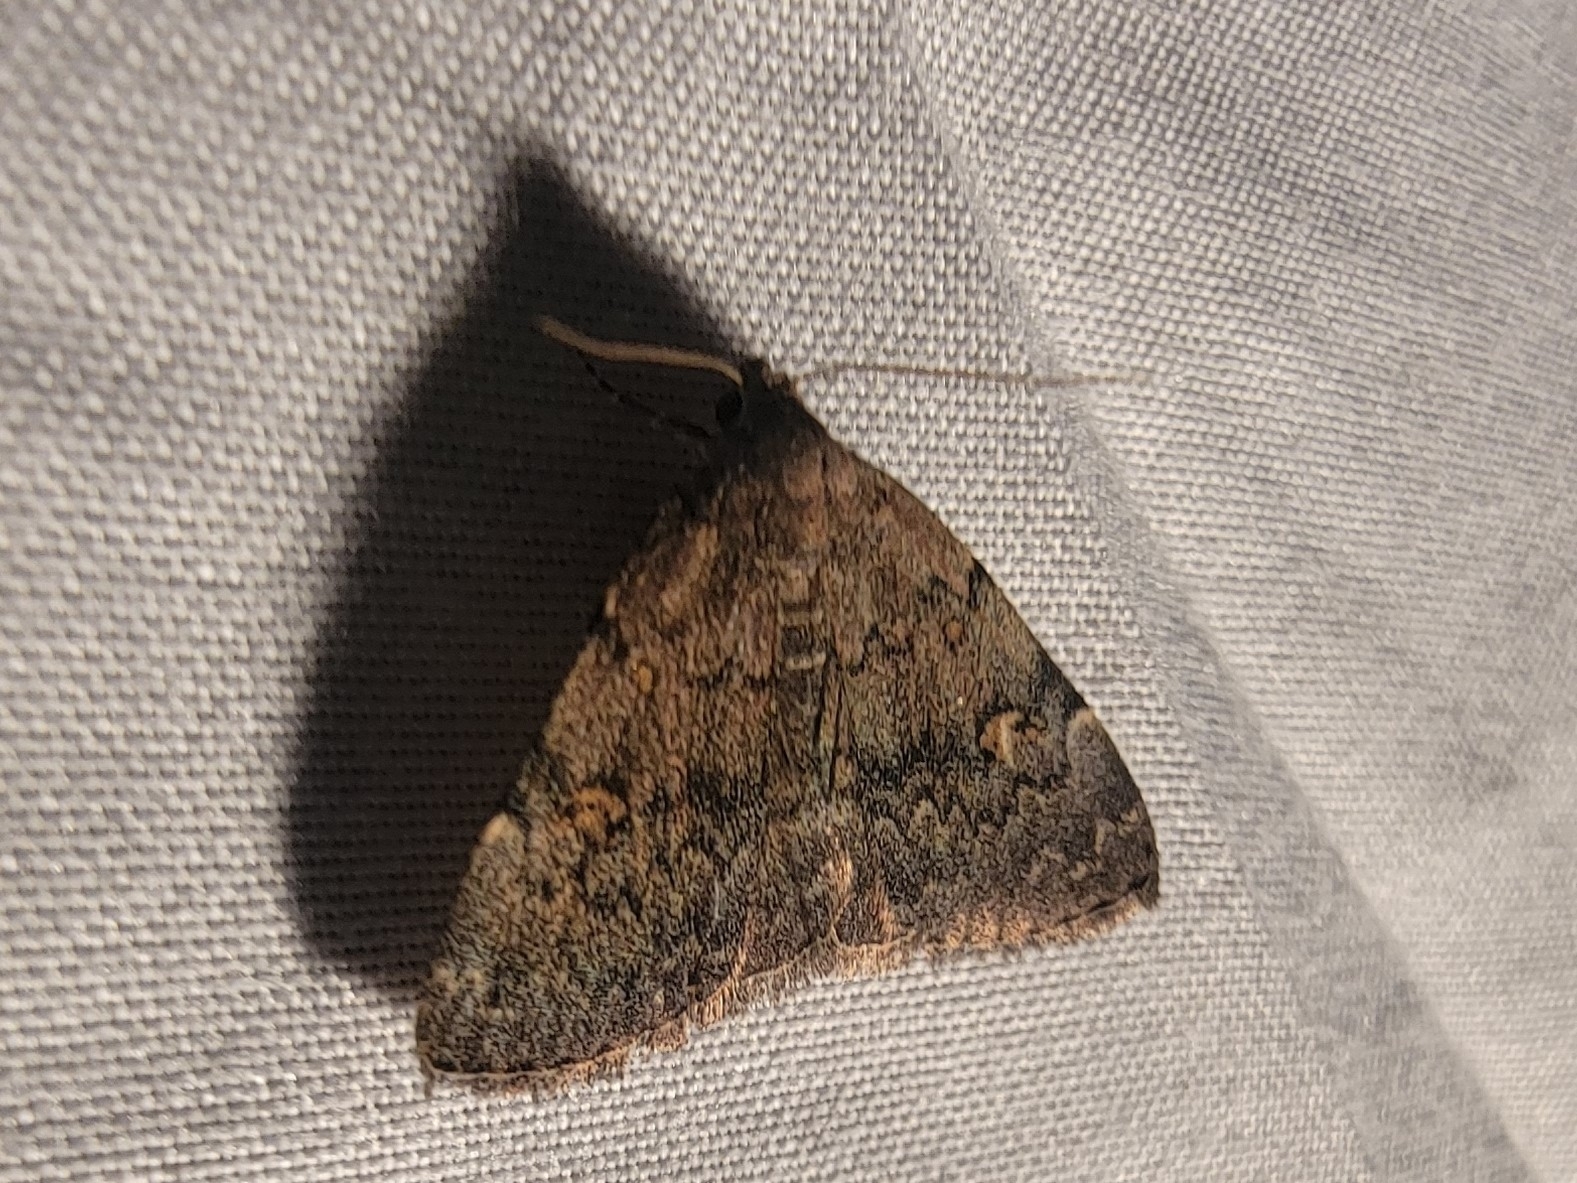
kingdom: Animalia
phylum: Arthropoda
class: Insecta
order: Lepidoptera
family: Erebidae
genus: Idia
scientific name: Idia aemula
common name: Common idia moth
